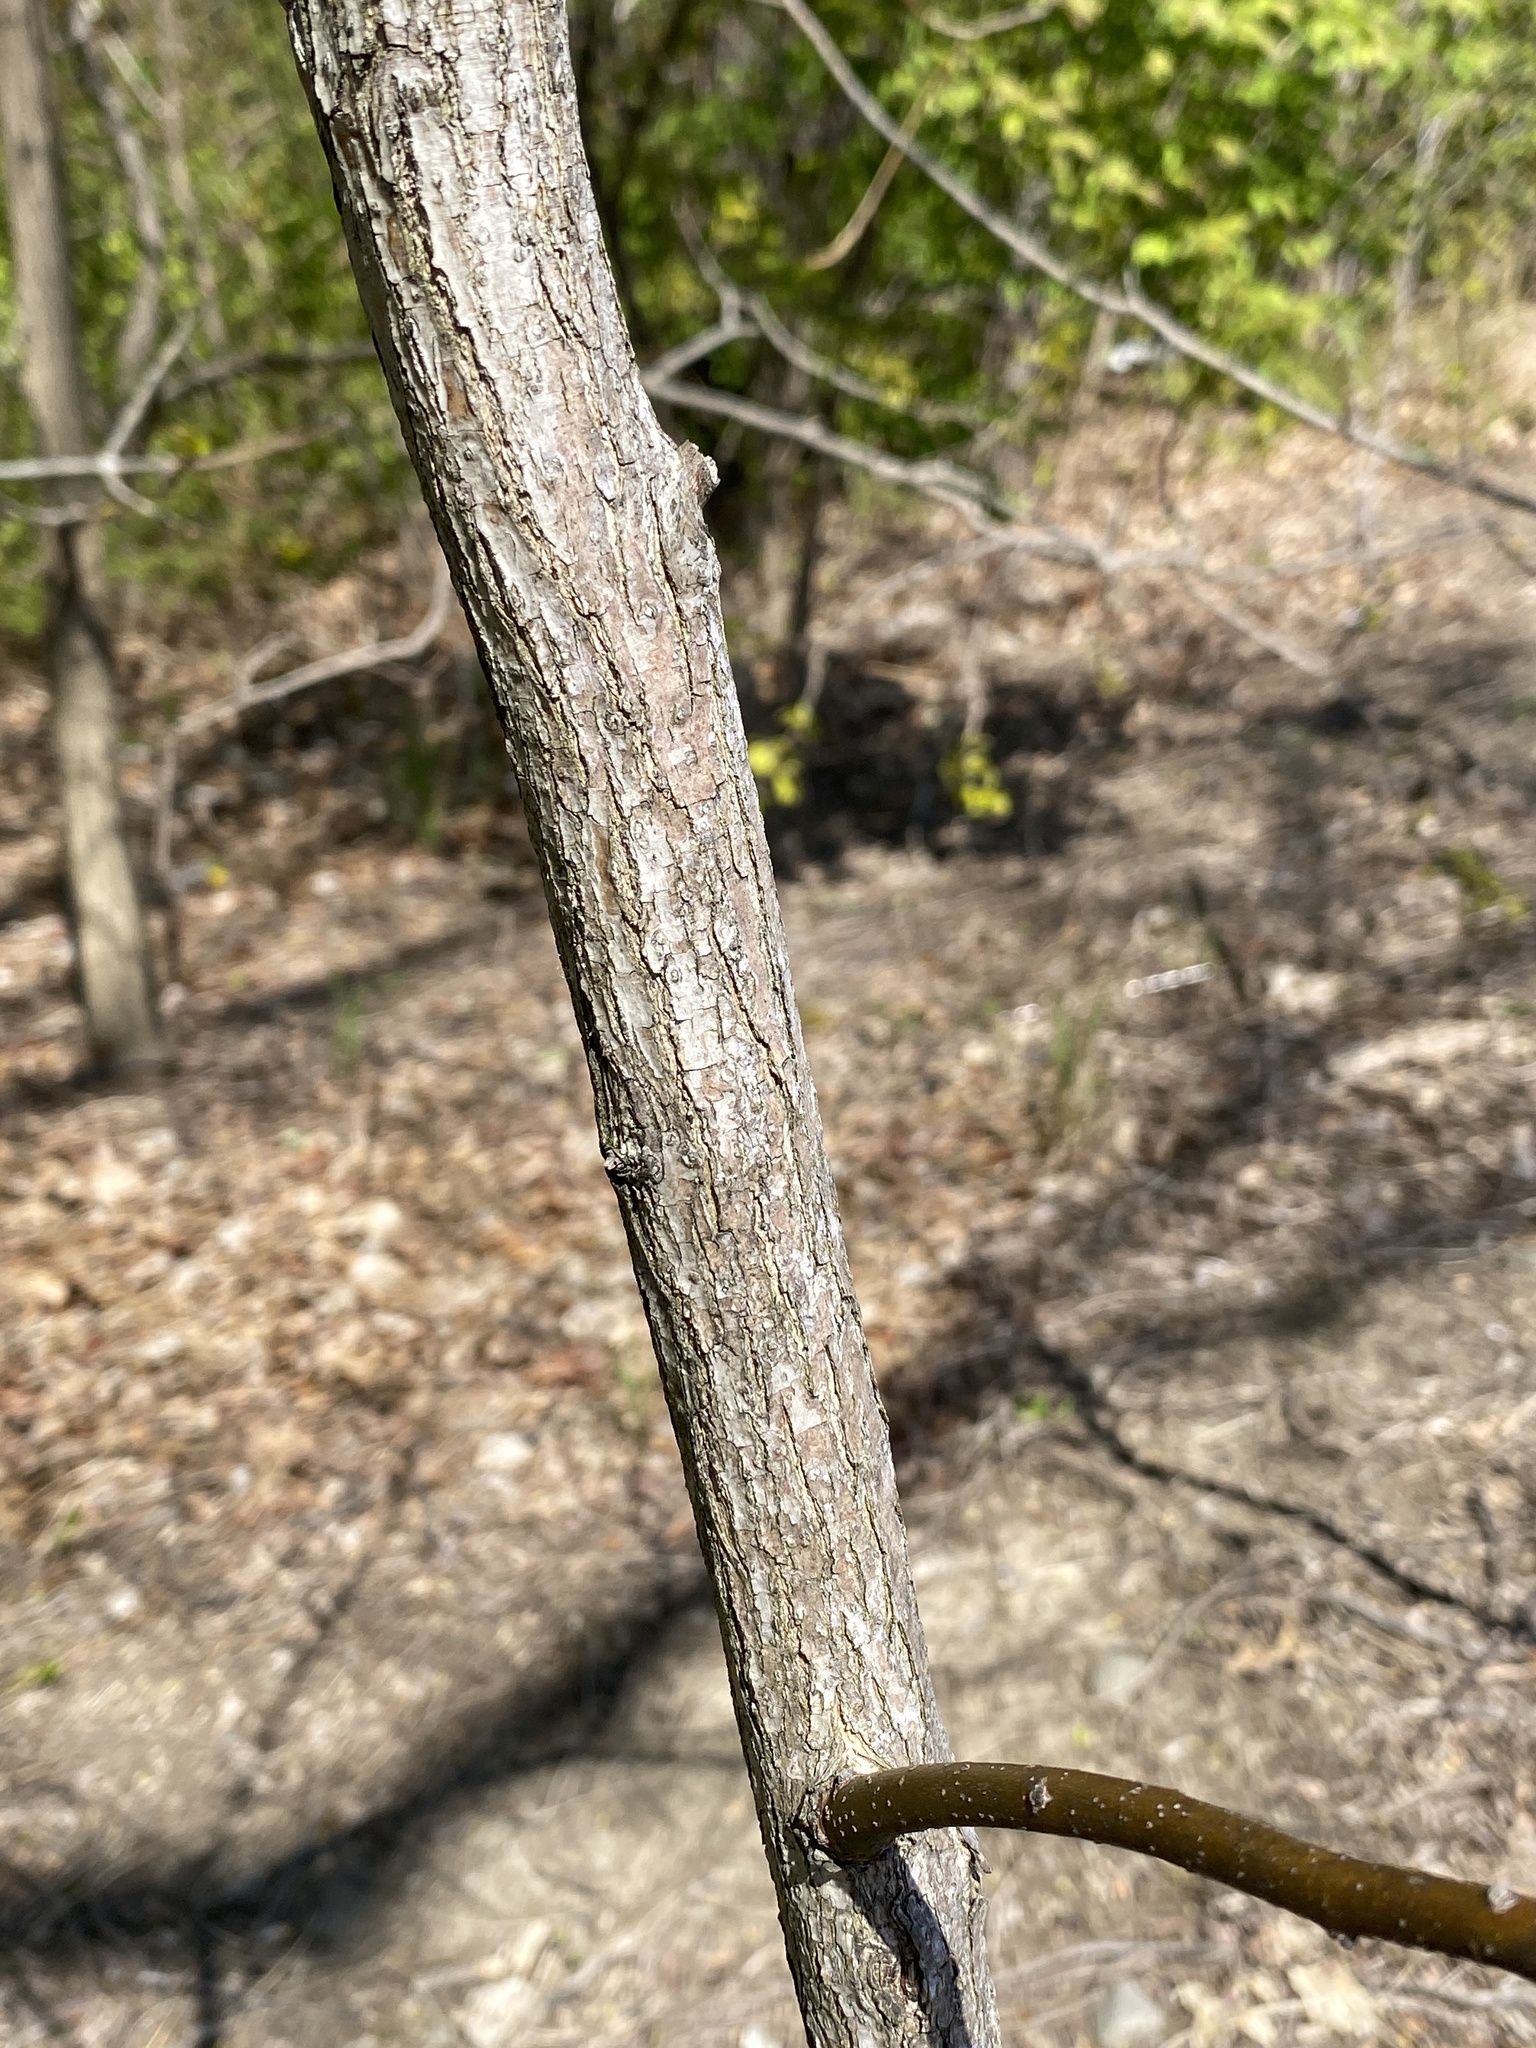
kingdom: Plantae
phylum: Tracheophyta
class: Magnoliopsida
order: Laurales
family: Lauraceae
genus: Sassafras
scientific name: Sassafras albidum
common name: Sassafras
